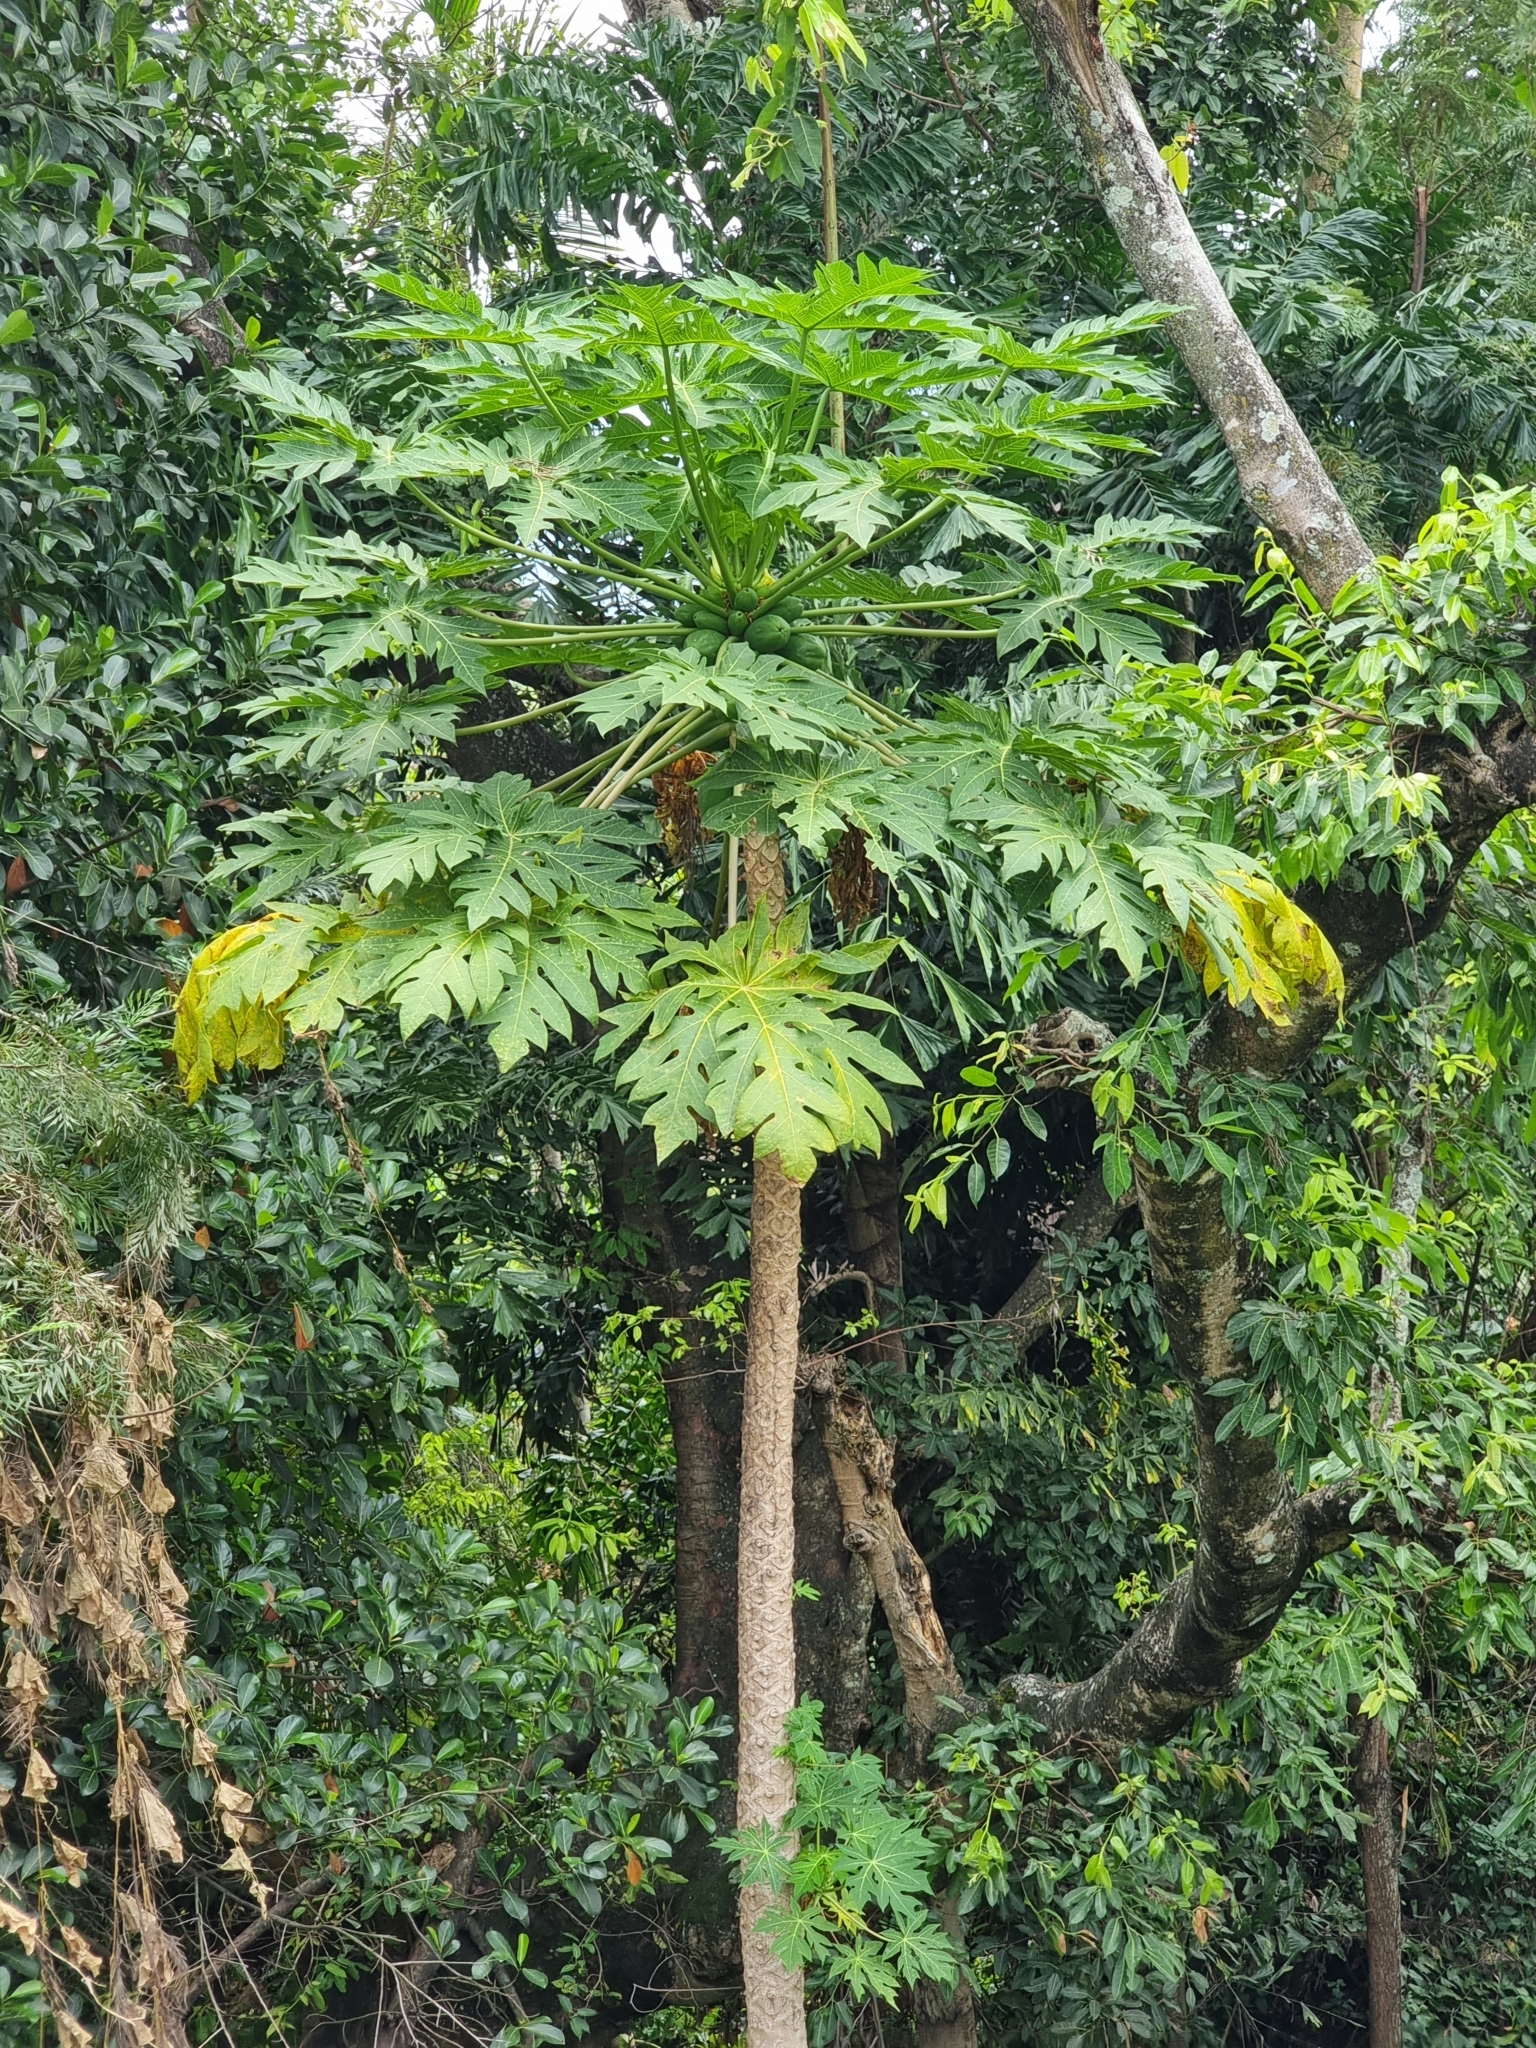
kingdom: Plantae
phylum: Tracheophyta
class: Magnoliopsida
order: Brassicales
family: Caricaceae
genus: Carica
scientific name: Carica papaya
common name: Papaya
